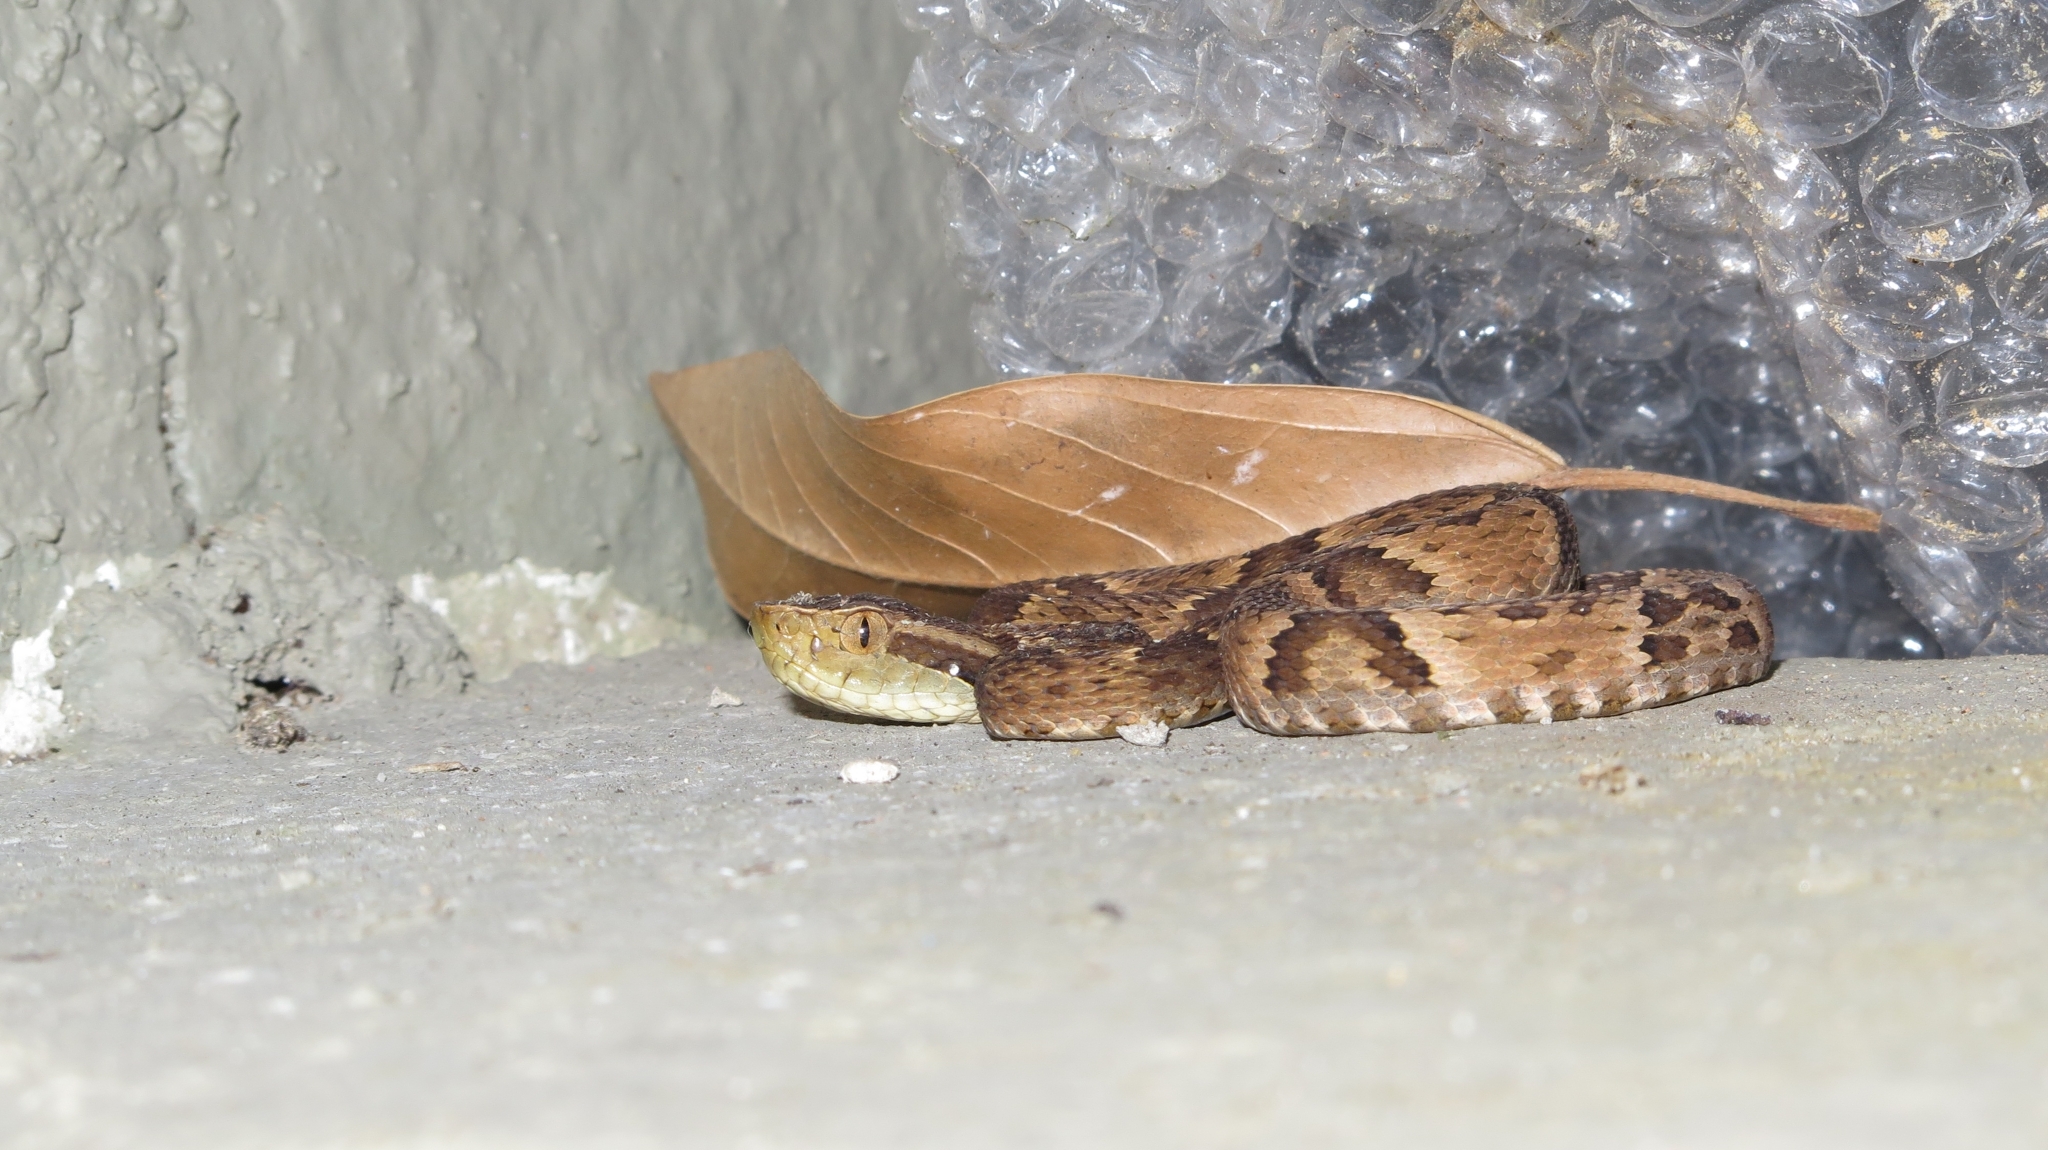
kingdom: Animalia
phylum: Chordata
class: Squamata
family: Viperidae
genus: Bothrops
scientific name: Bothrops jararaca
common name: Jararaca
